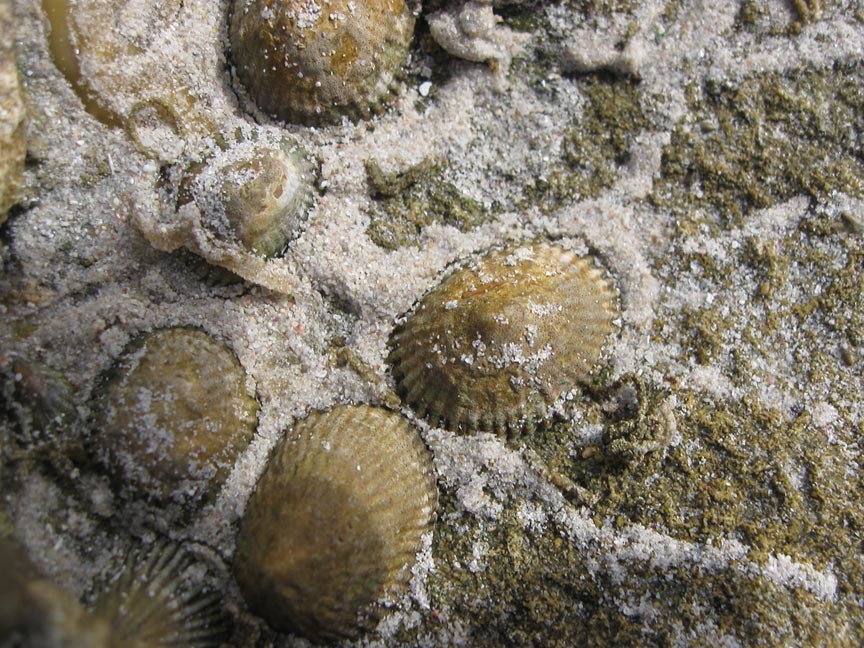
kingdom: Animalia
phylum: Mollusca
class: Gastropoda
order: Siphonariida
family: Siphonariidae
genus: Siphonaria
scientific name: Siphonaria capensis
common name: Cape false limpet
